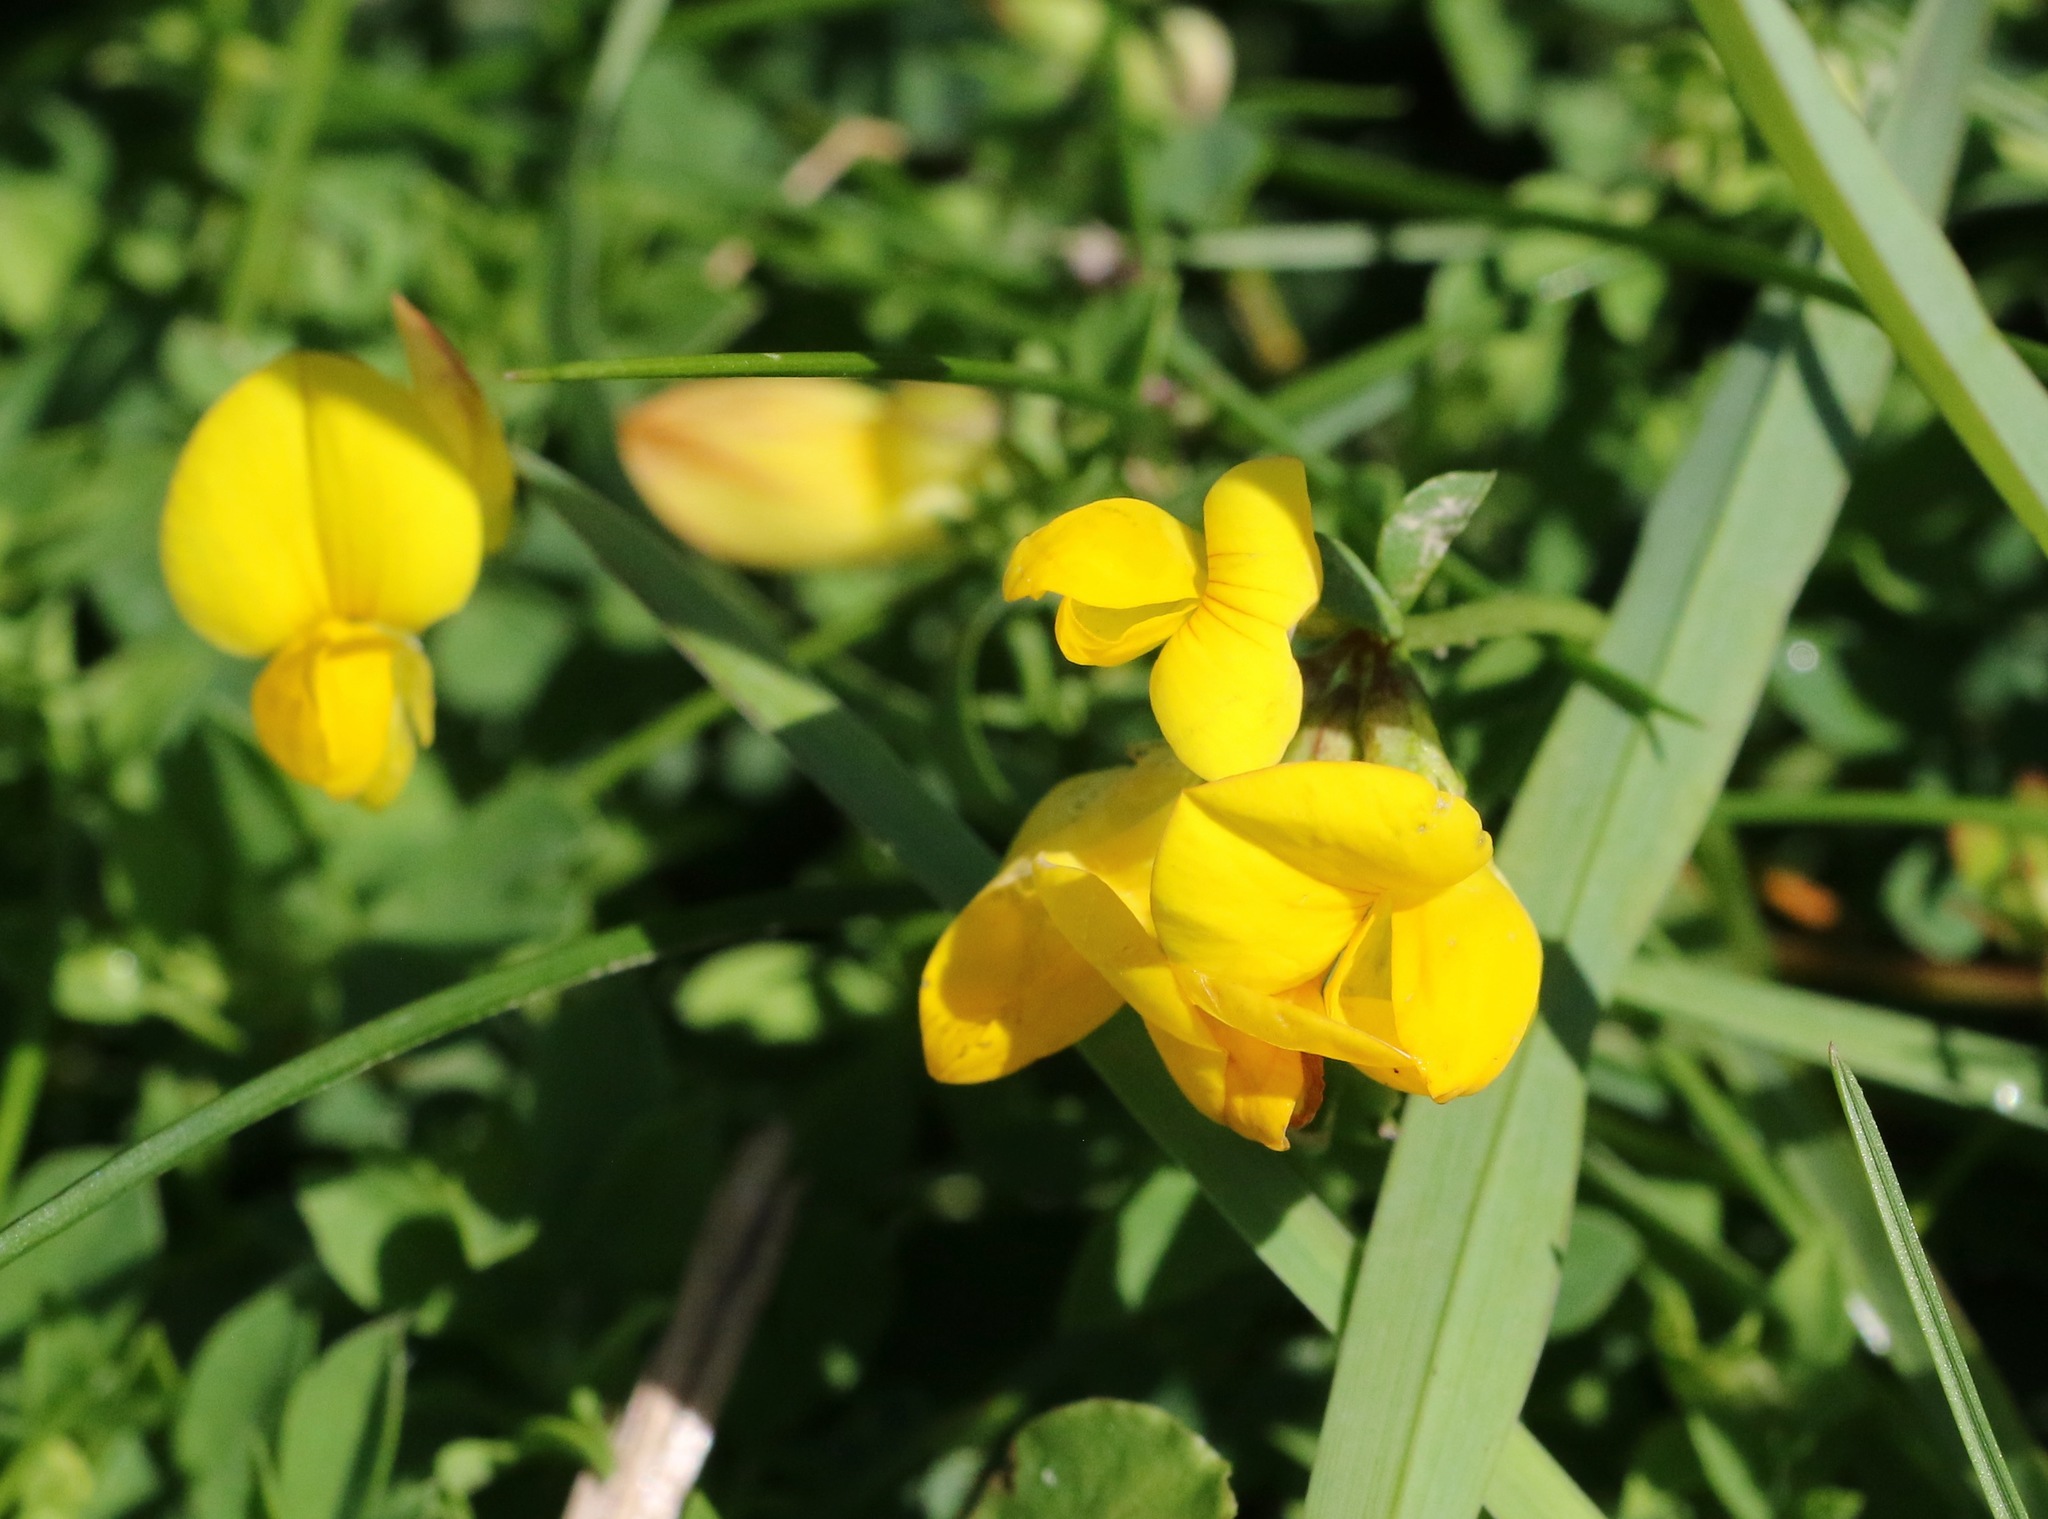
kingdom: Plantae
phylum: Tracheophyta
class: Magnoliopsida
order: Fabales
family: Fabaceae
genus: Lotus
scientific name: Lotus corniculatus
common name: Common bird's-foot-trefoil
